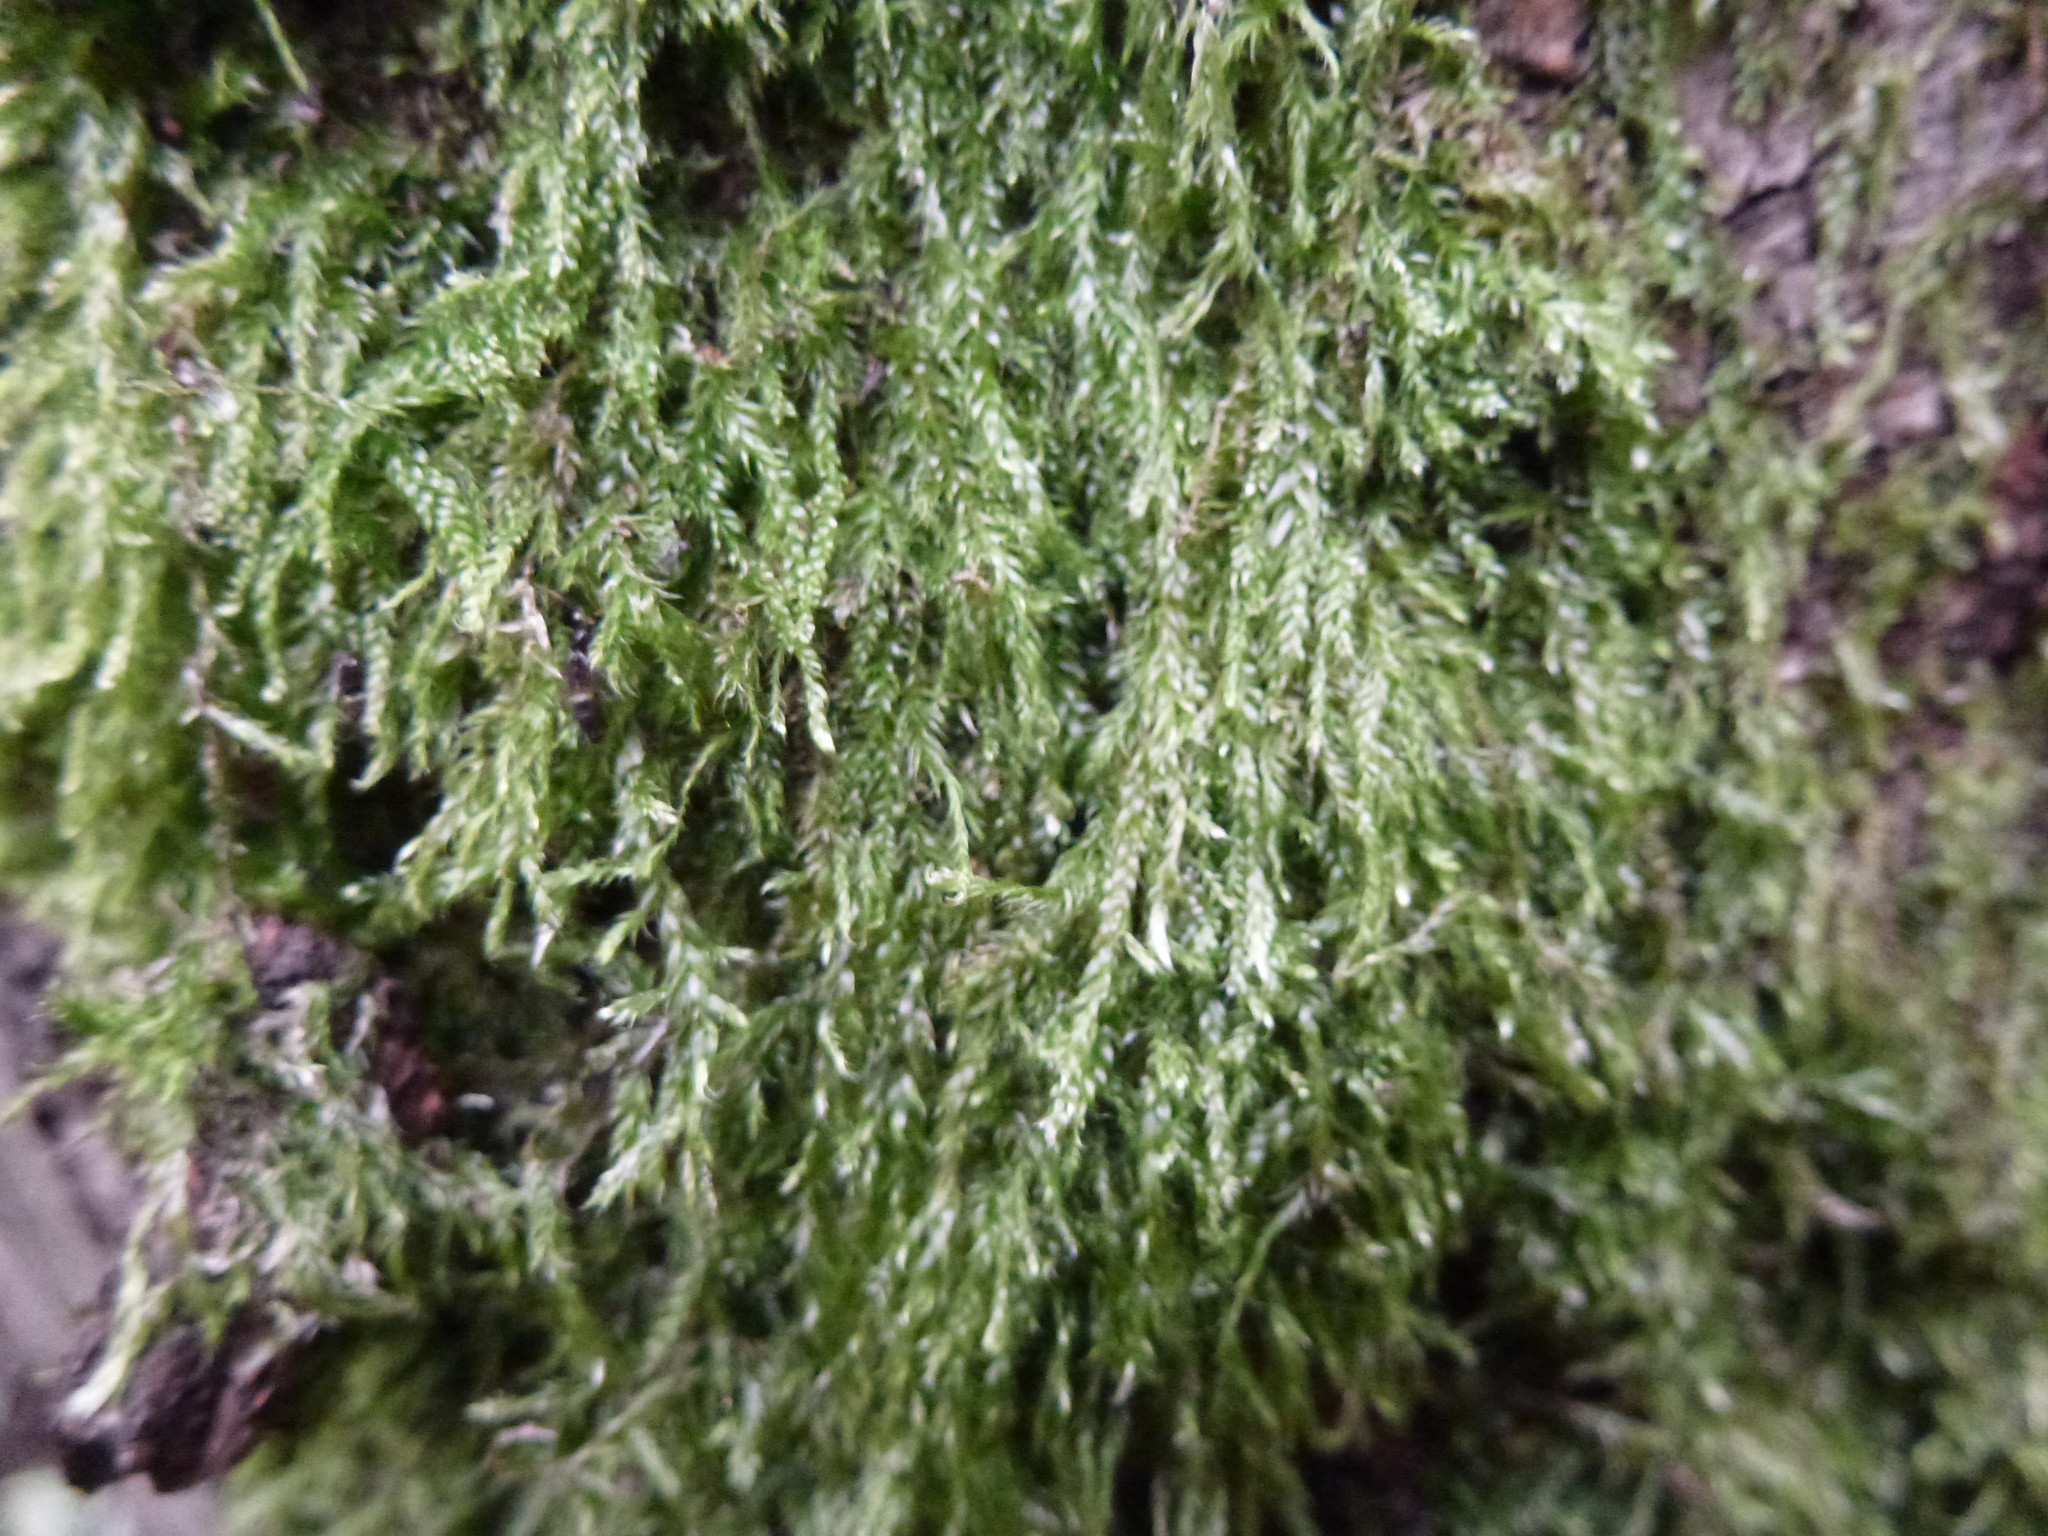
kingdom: Plantae
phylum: Bryophyta
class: Bryopsida
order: Hypnales
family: Hypnaceae
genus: Hypnum
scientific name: Hypnum cupressiforme
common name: Cypress-leaved plait-moss
